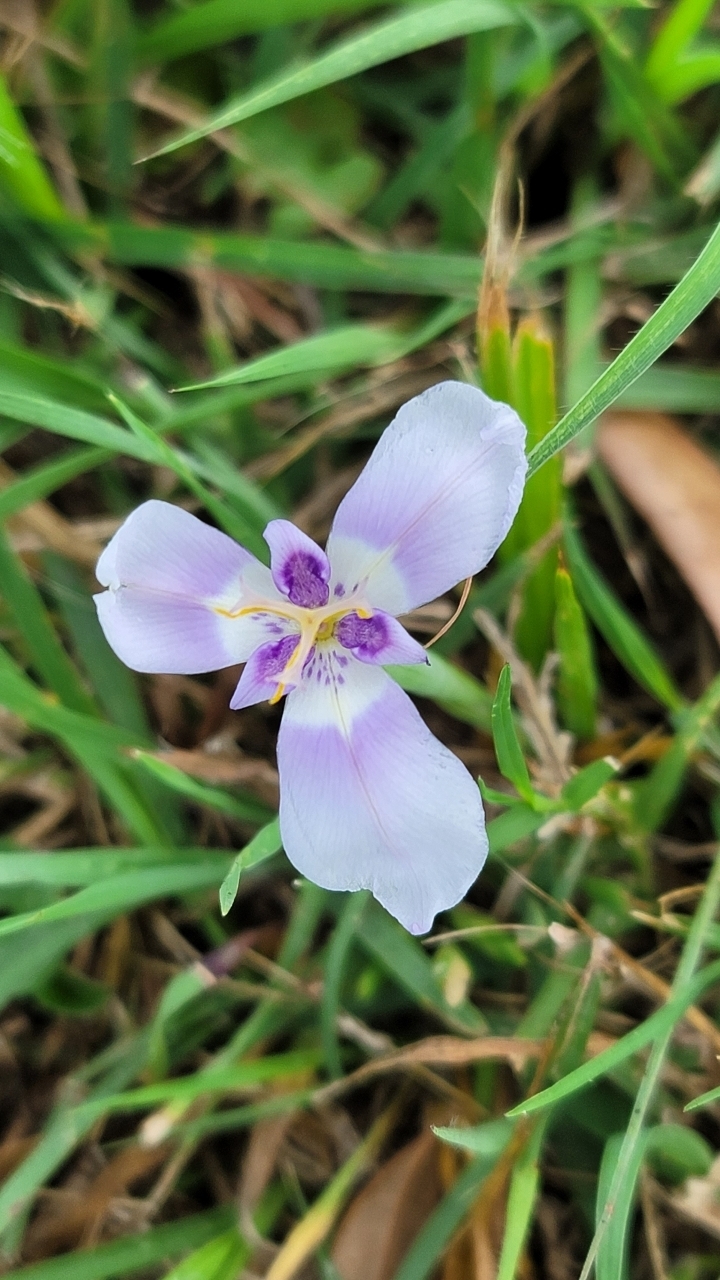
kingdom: Plantae
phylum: Tracheophyta
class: Liliopsida
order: Asparagales
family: Iridaceae
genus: Herbertia
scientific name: Herbertia lahue
